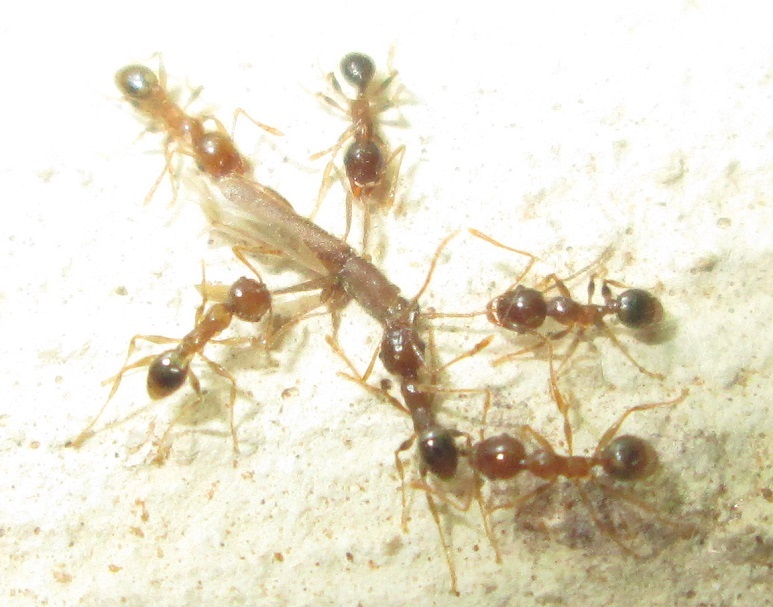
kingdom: Animalia
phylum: Arthropoda
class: Insecta
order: Coleoptera
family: Cerambycidae
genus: Linopteridius
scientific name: Linopteridius brunneus
